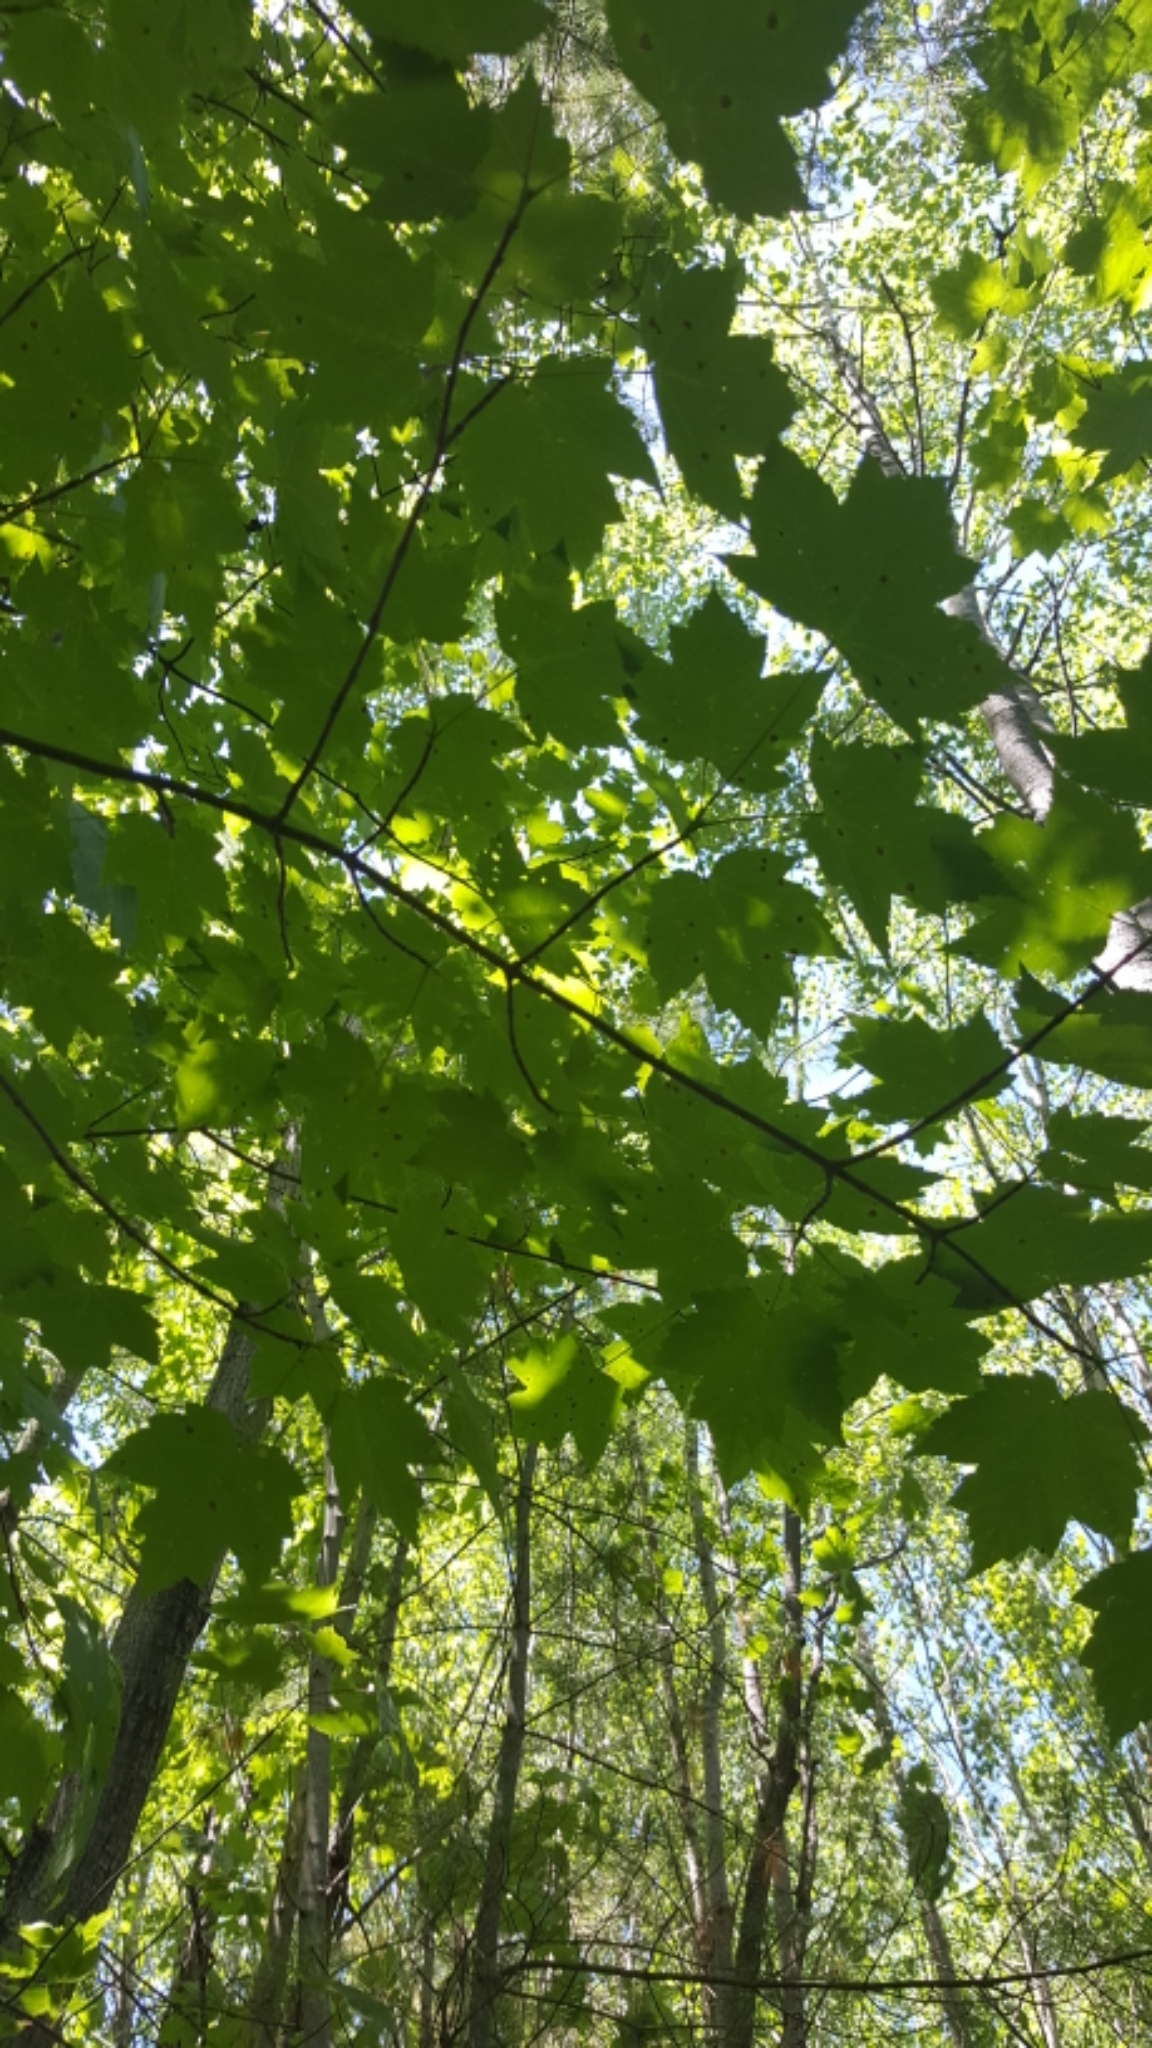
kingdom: Plantae
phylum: Tracheophyta
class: Magnoliopsida
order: Sapindales
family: Sapindaceae
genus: Acer
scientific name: Acer rubrum
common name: Red maple
